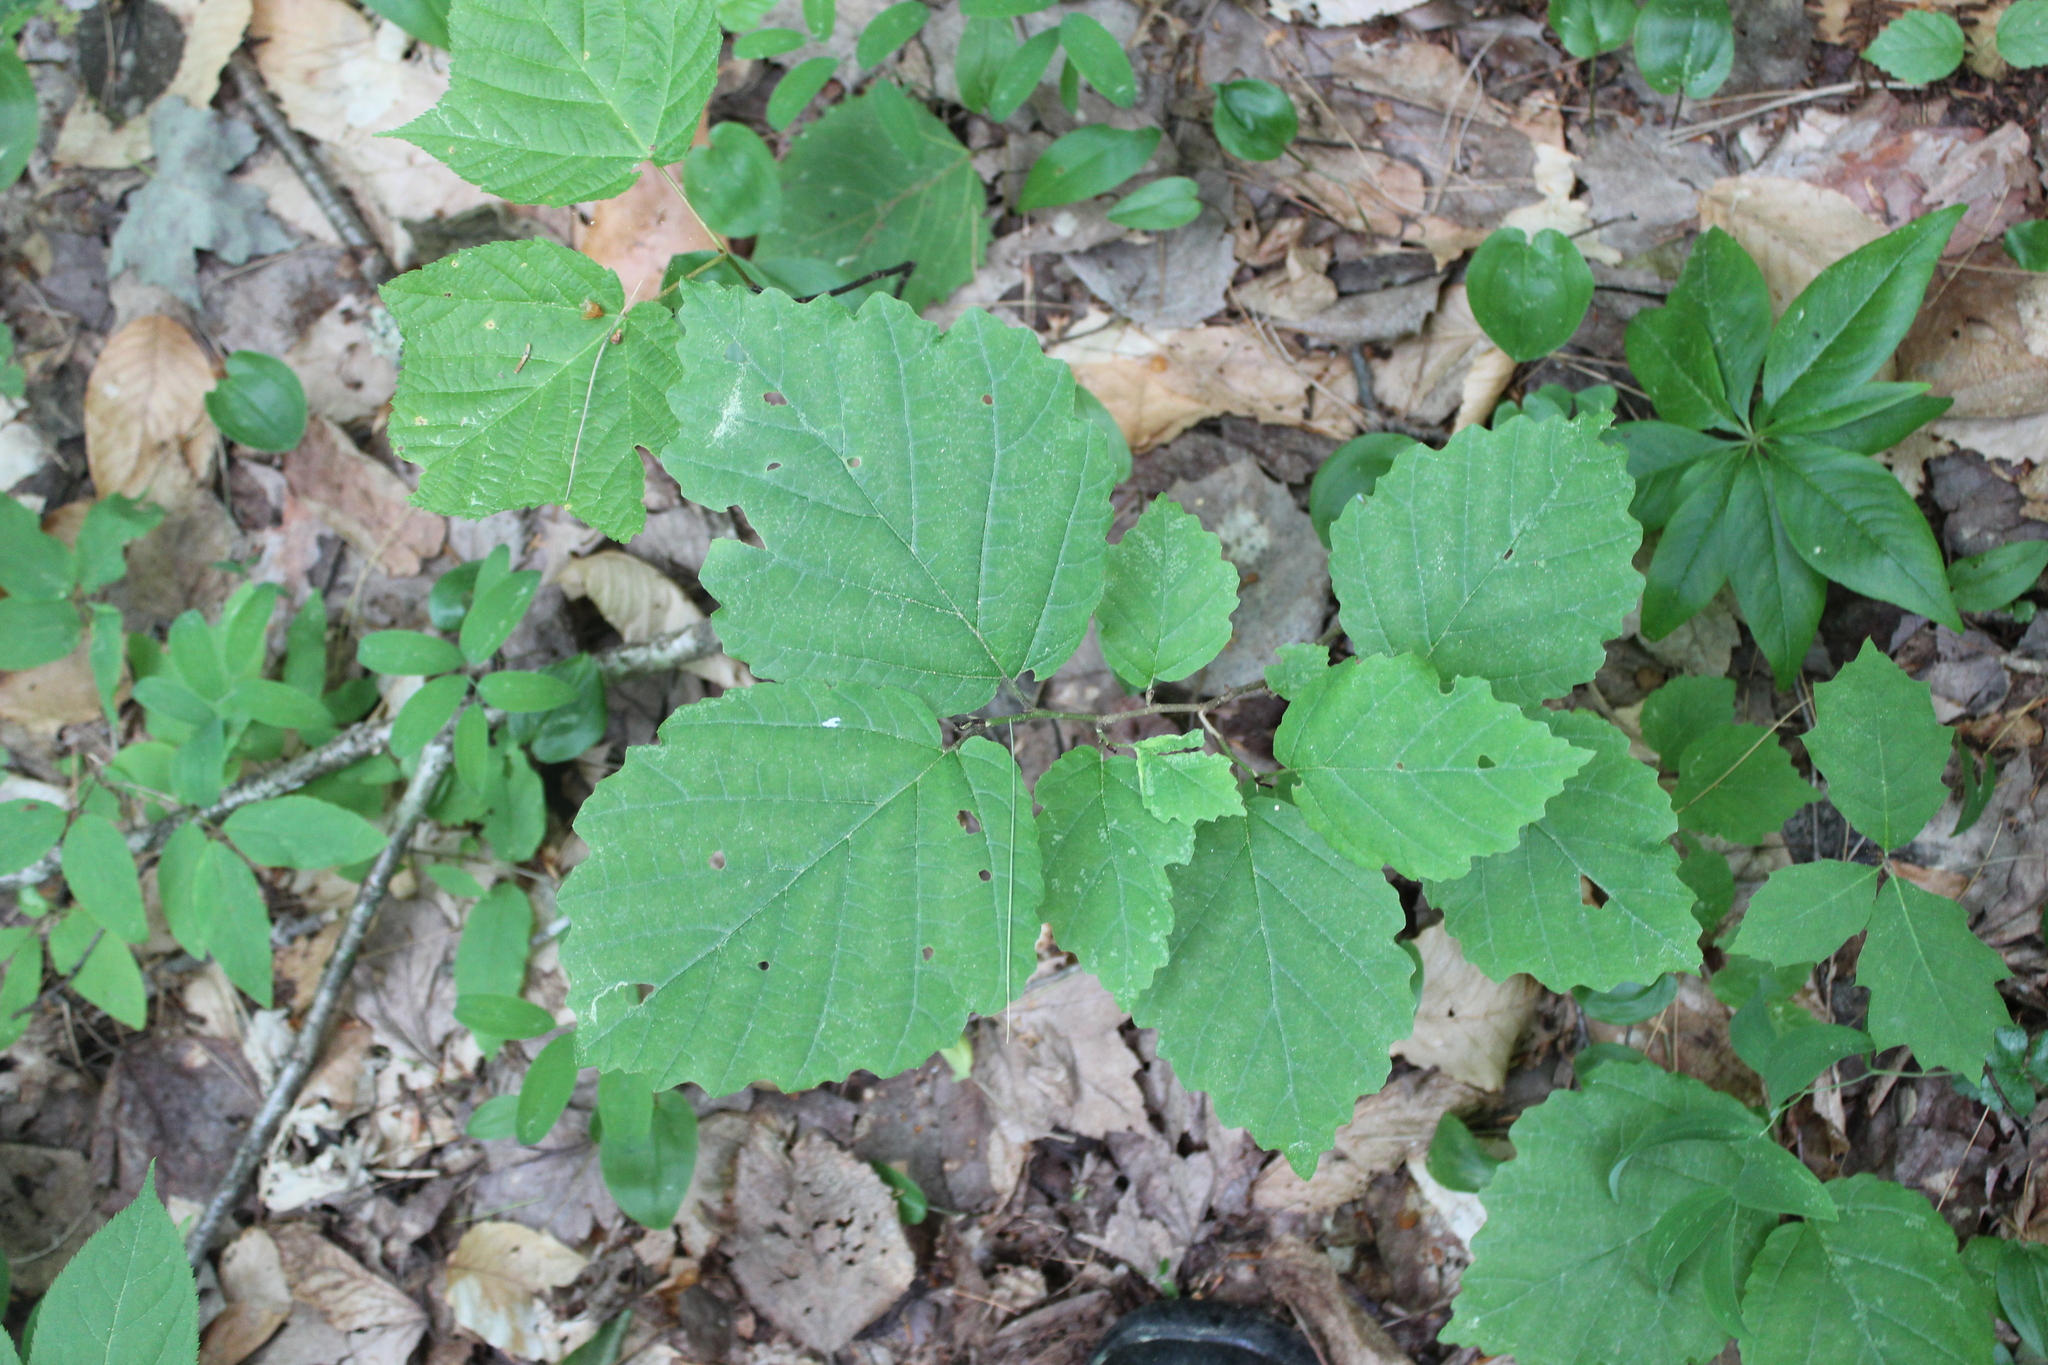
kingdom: Plantae
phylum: Tracheophyta
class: Magnoliopsida
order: Saxifragales
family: Hamamelidaceae
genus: Hamamelis
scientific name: Hamamelis virginiana
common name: Witch-hazel
